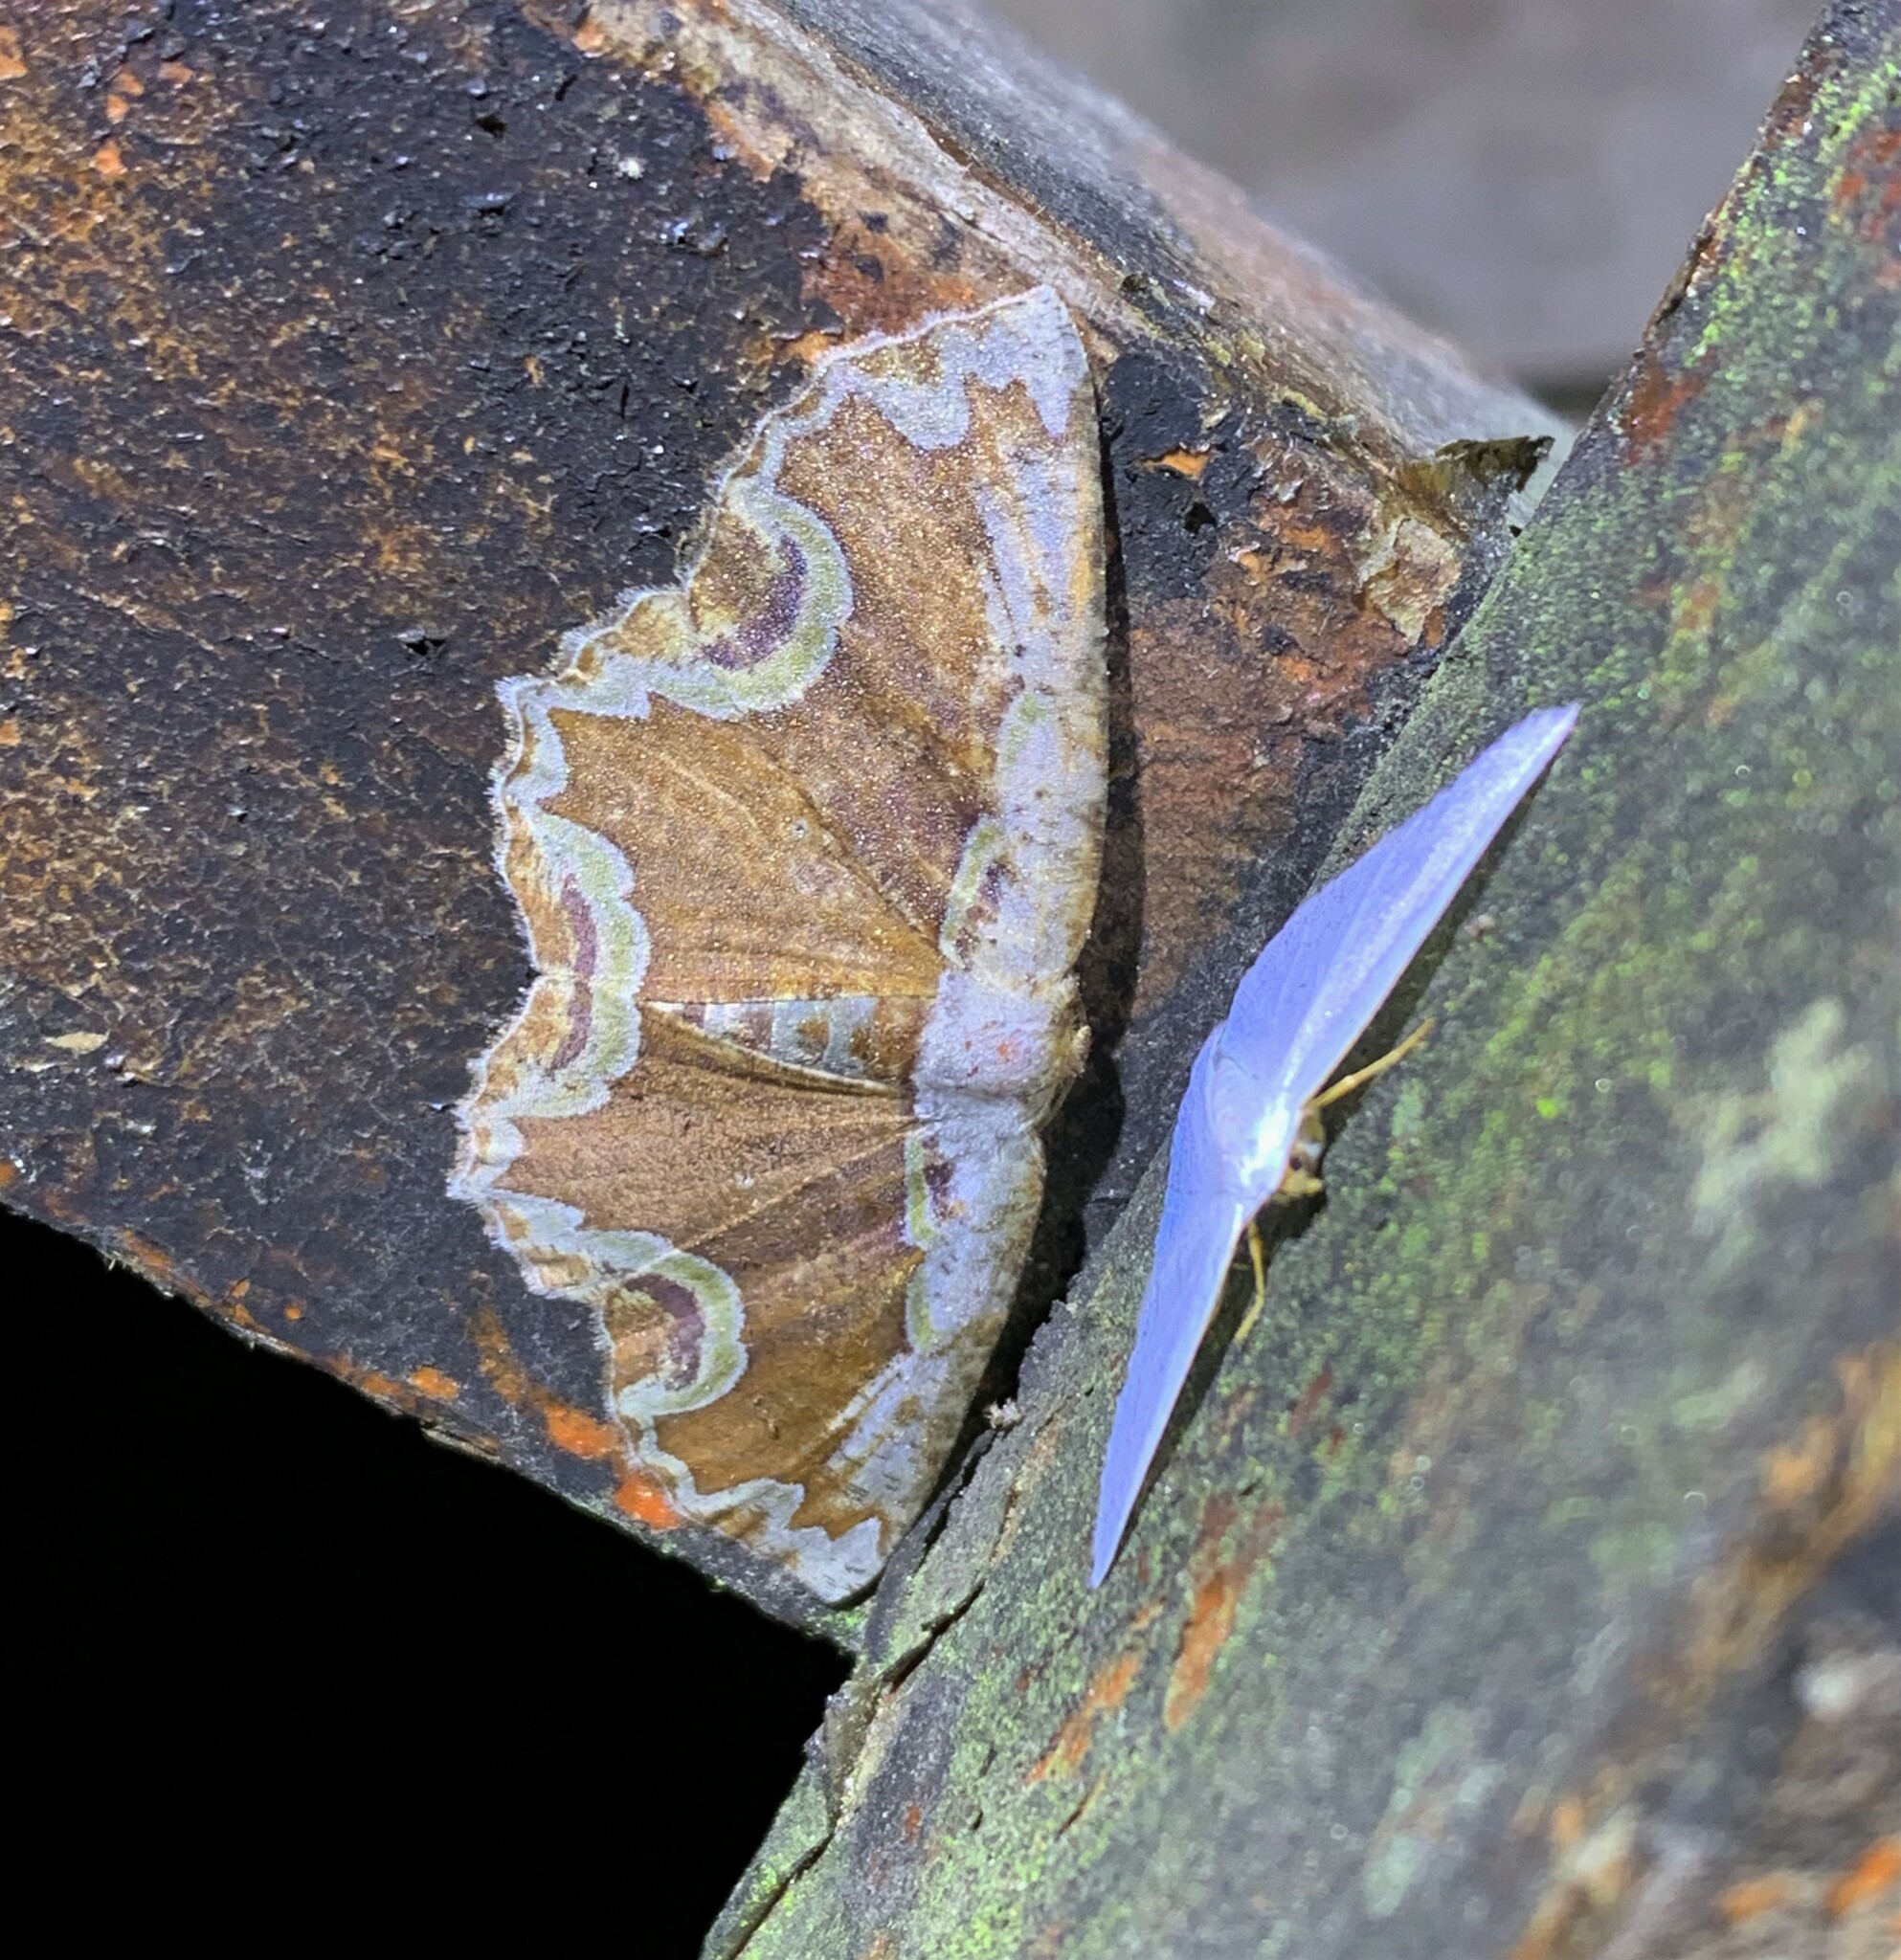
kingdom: Animalia
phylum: Arthropoda
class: Insecta
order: Lepidoptera
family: Geometridae
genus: Sabulodes
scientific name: Sabulodes ornatissima
